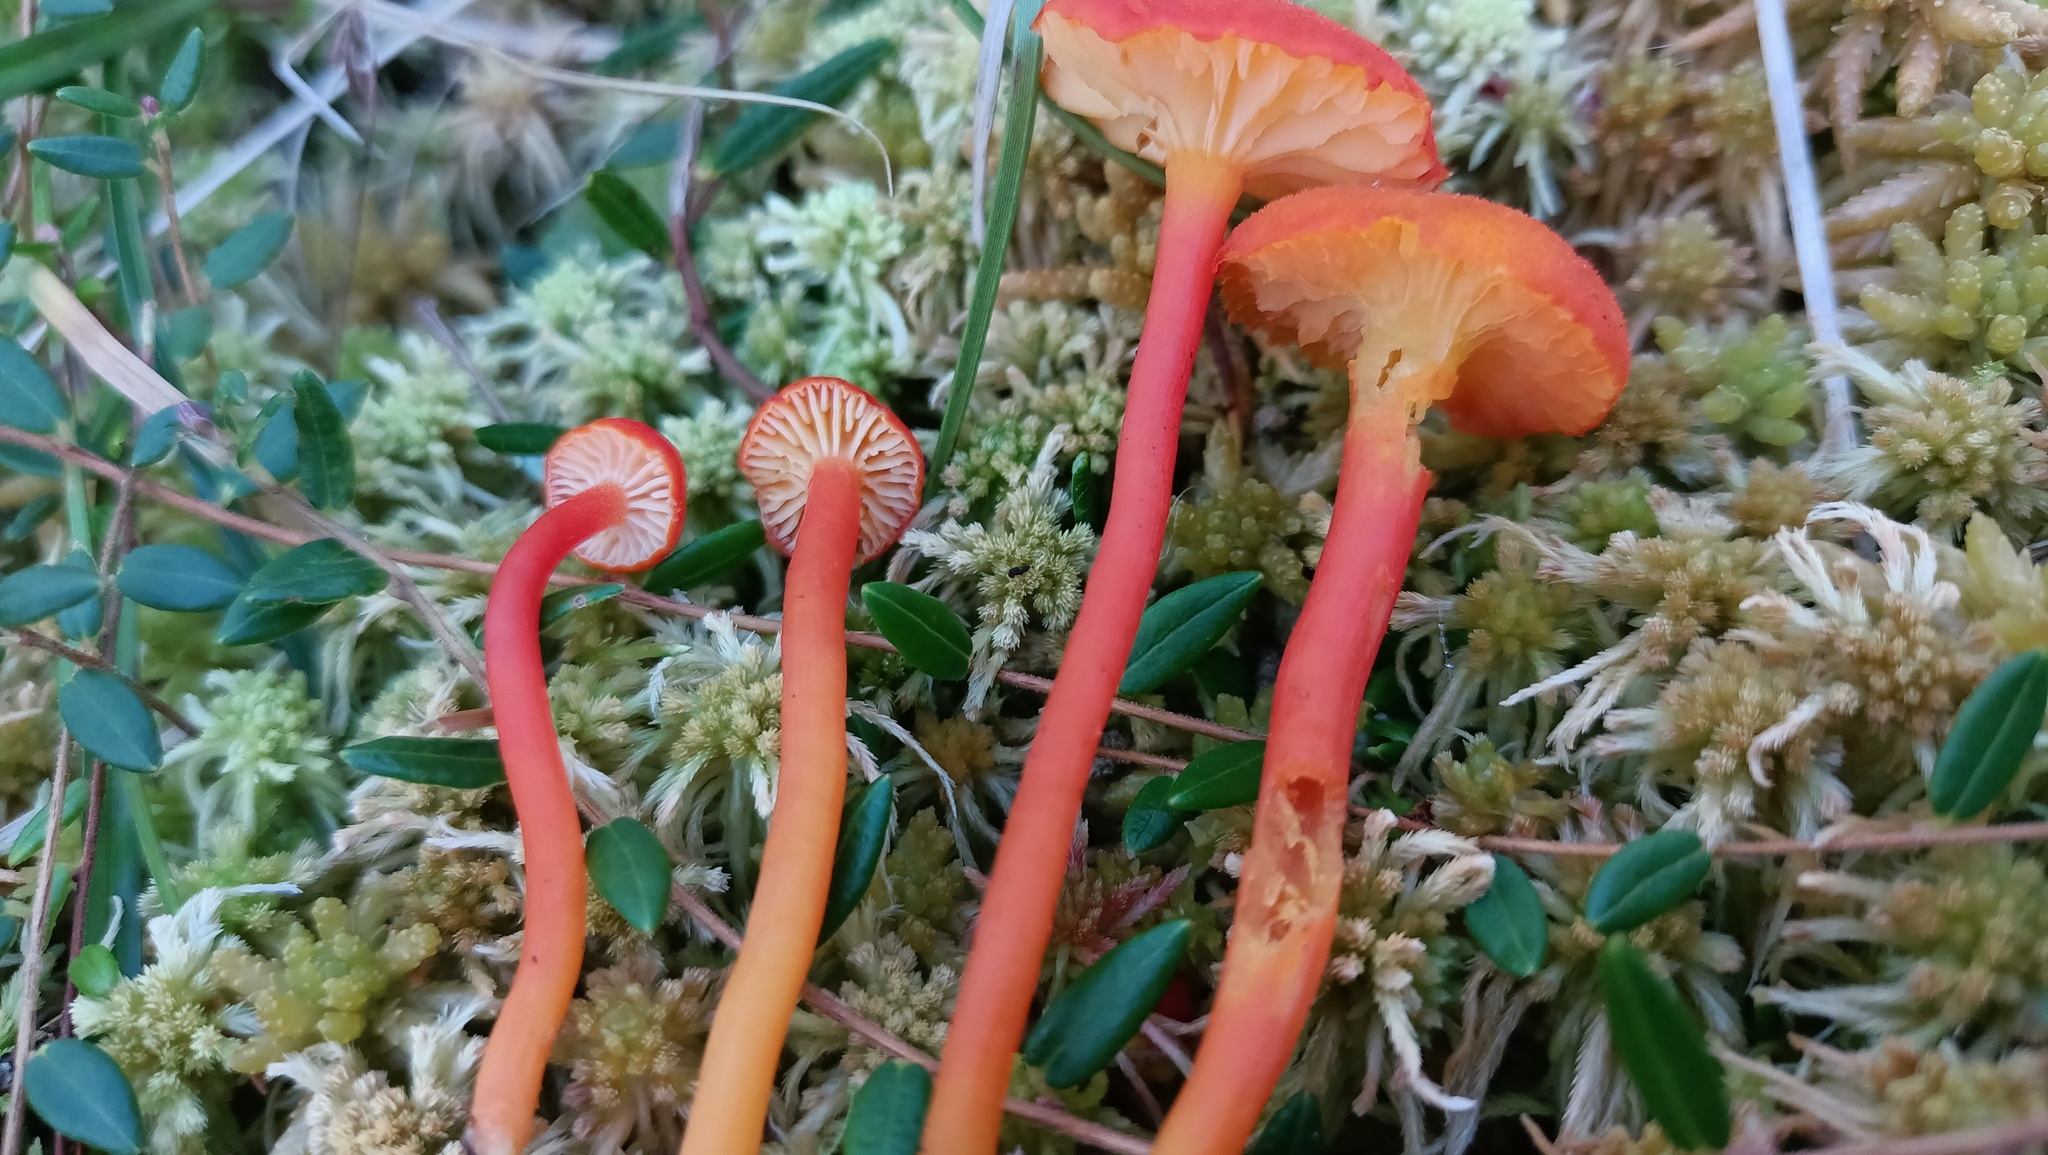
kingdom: Fungi
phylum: Basidiomycota
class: Agaricomycetes
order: Agaricales
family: Hygrophoraceae
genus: Hygrocybe
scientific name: Hygrocybe coccineocrenata
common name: Bog waxcap
